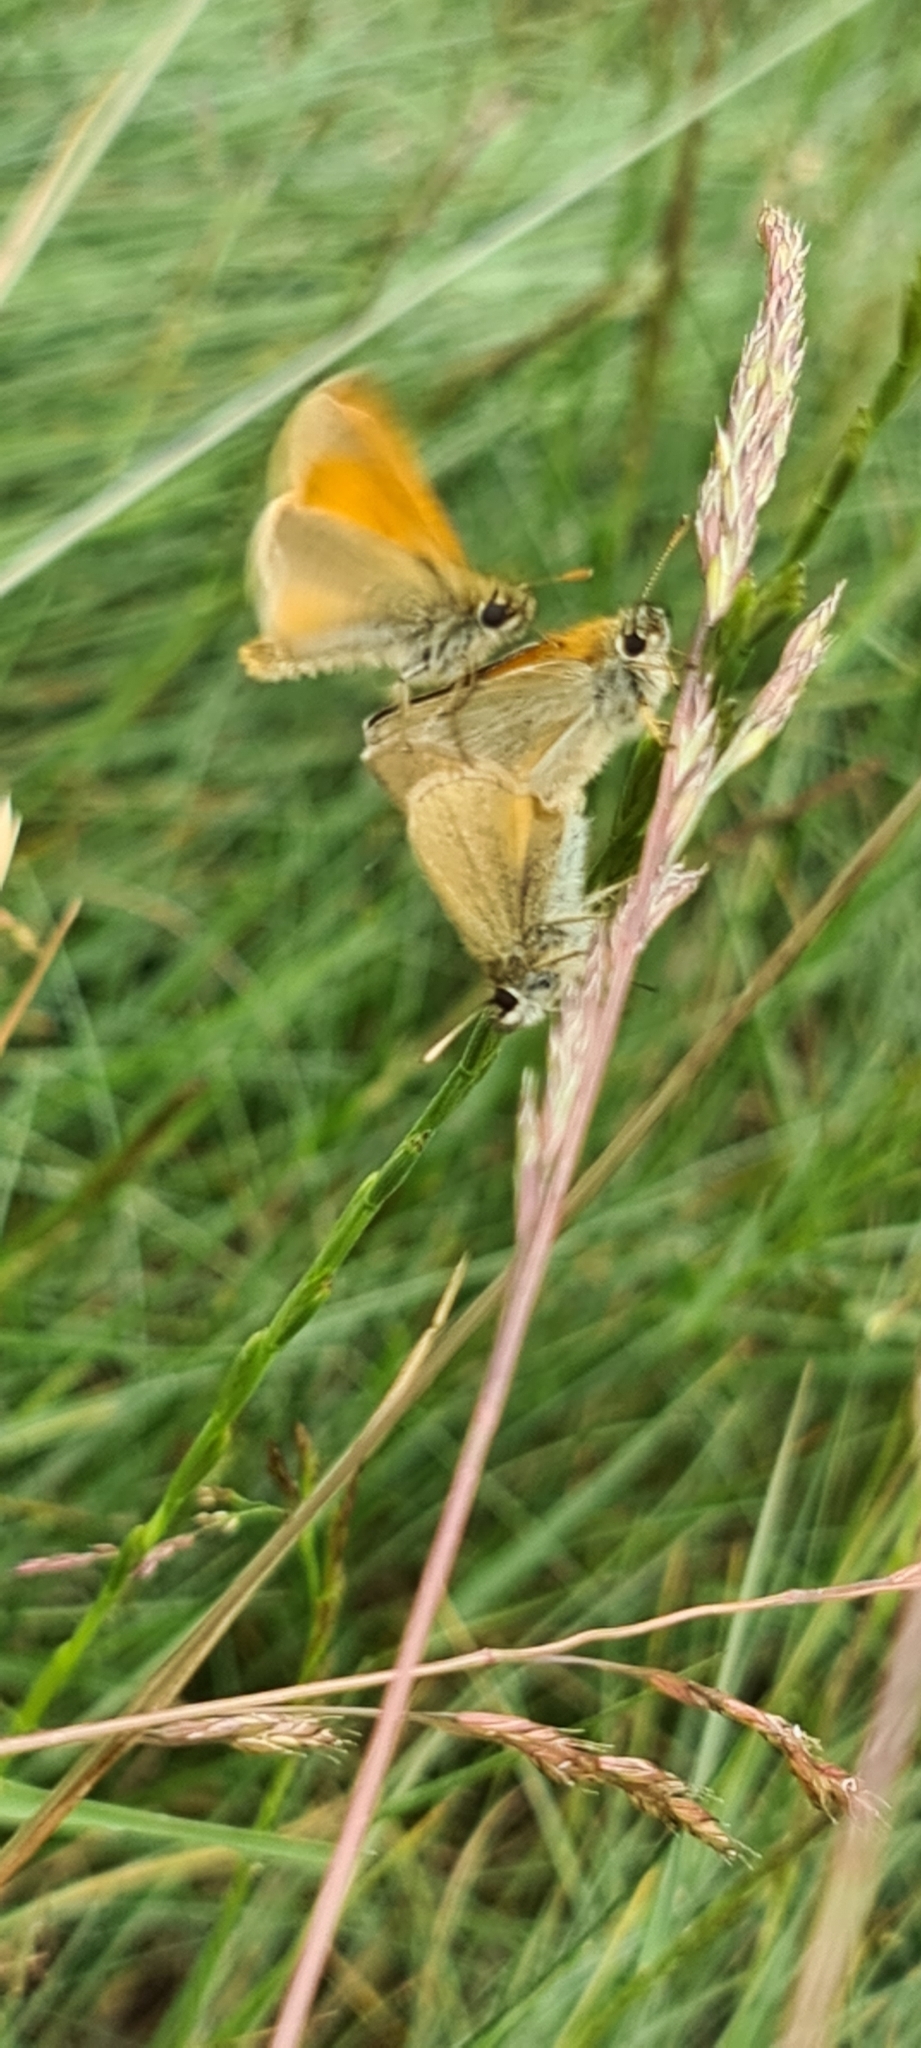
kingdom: Animalia
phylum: Arthropoda
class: Insecta
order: Lepidoptera
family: Hesperiidae
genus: Thymelicus
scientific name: Thymelicus sylvestris
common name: Small skipper
